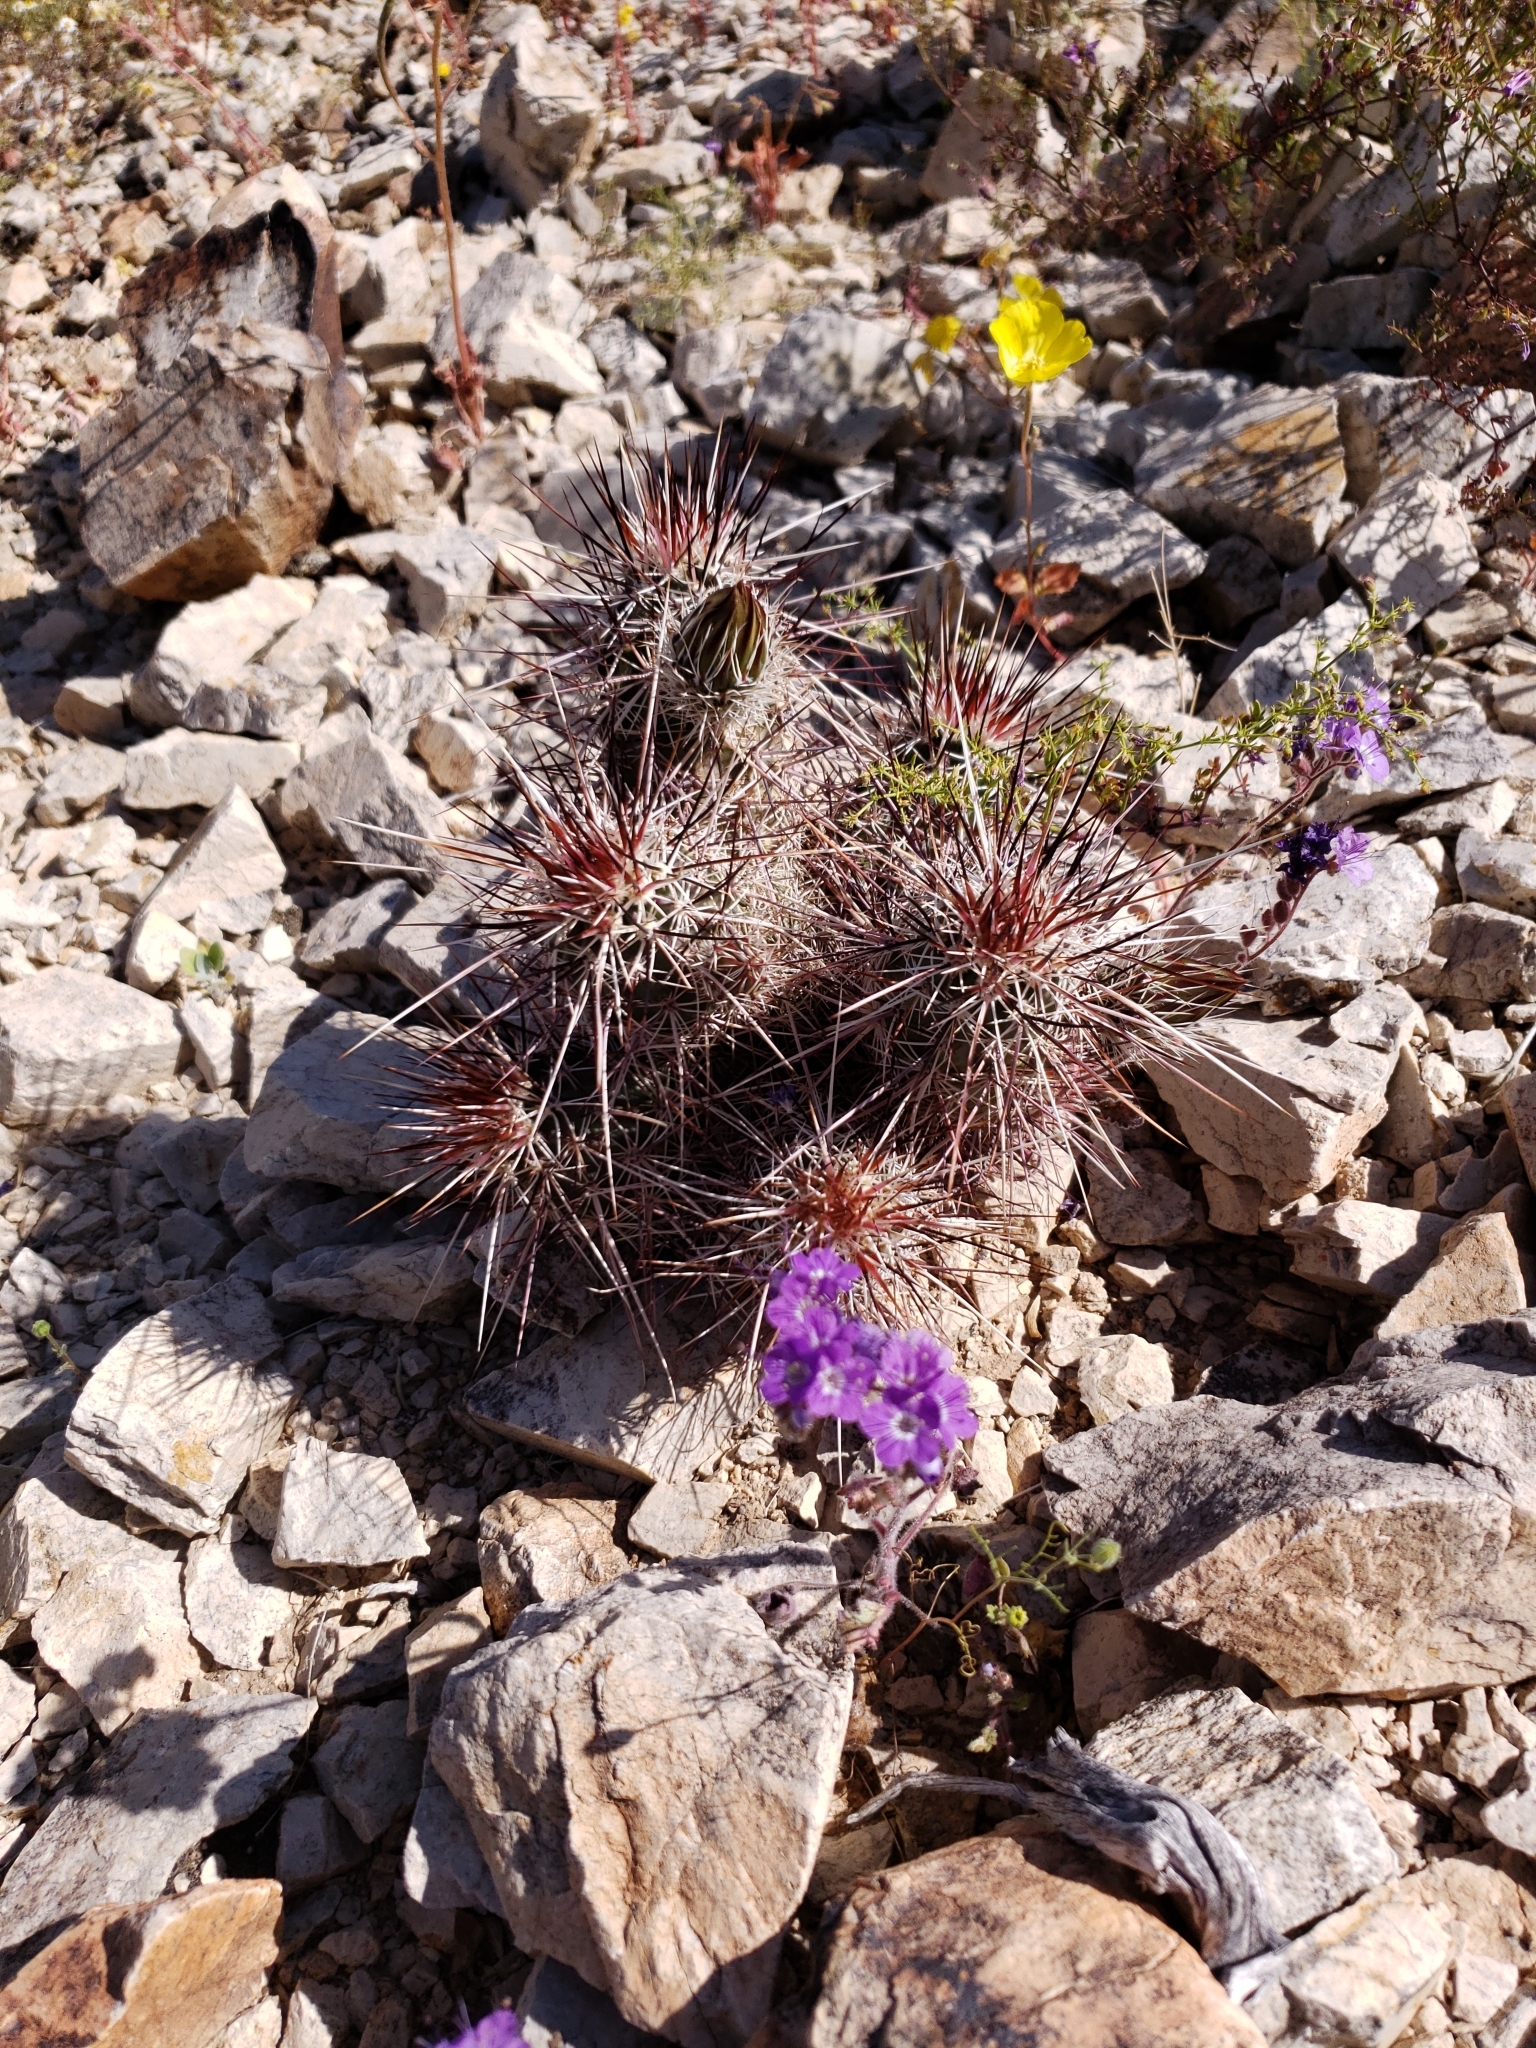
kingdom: Plantae
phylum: Tracheophyta
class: Magnoliopsida
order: Caryophyllales
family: Cactaceae
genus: Echinocereus
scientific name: Echinocereus engelmannii
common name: Engelmann's hedgehog cactus
